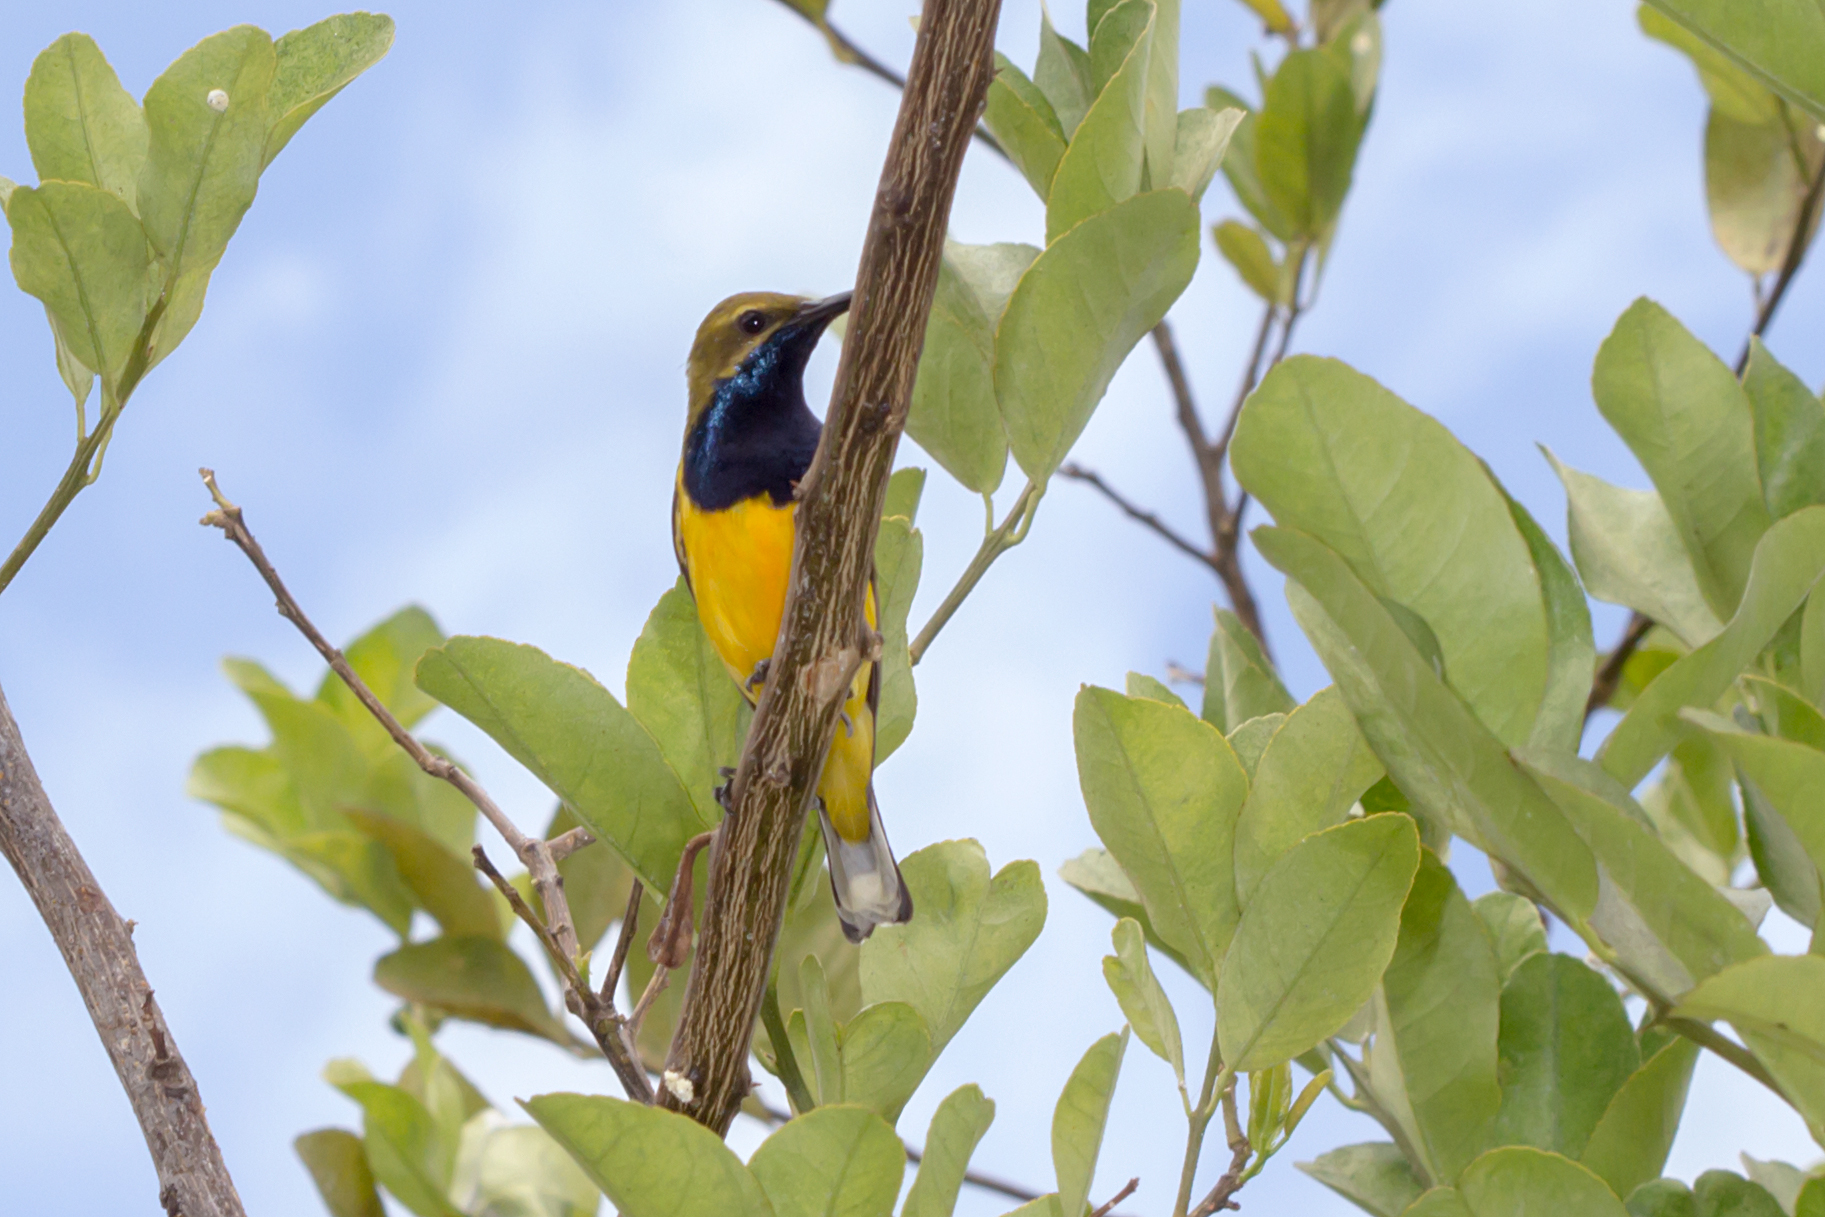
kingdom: Animalia
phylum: Chordata
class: Aves
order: Passeriformes
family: Nectariniidae
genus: Cinnyris
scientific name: Cinnyris
